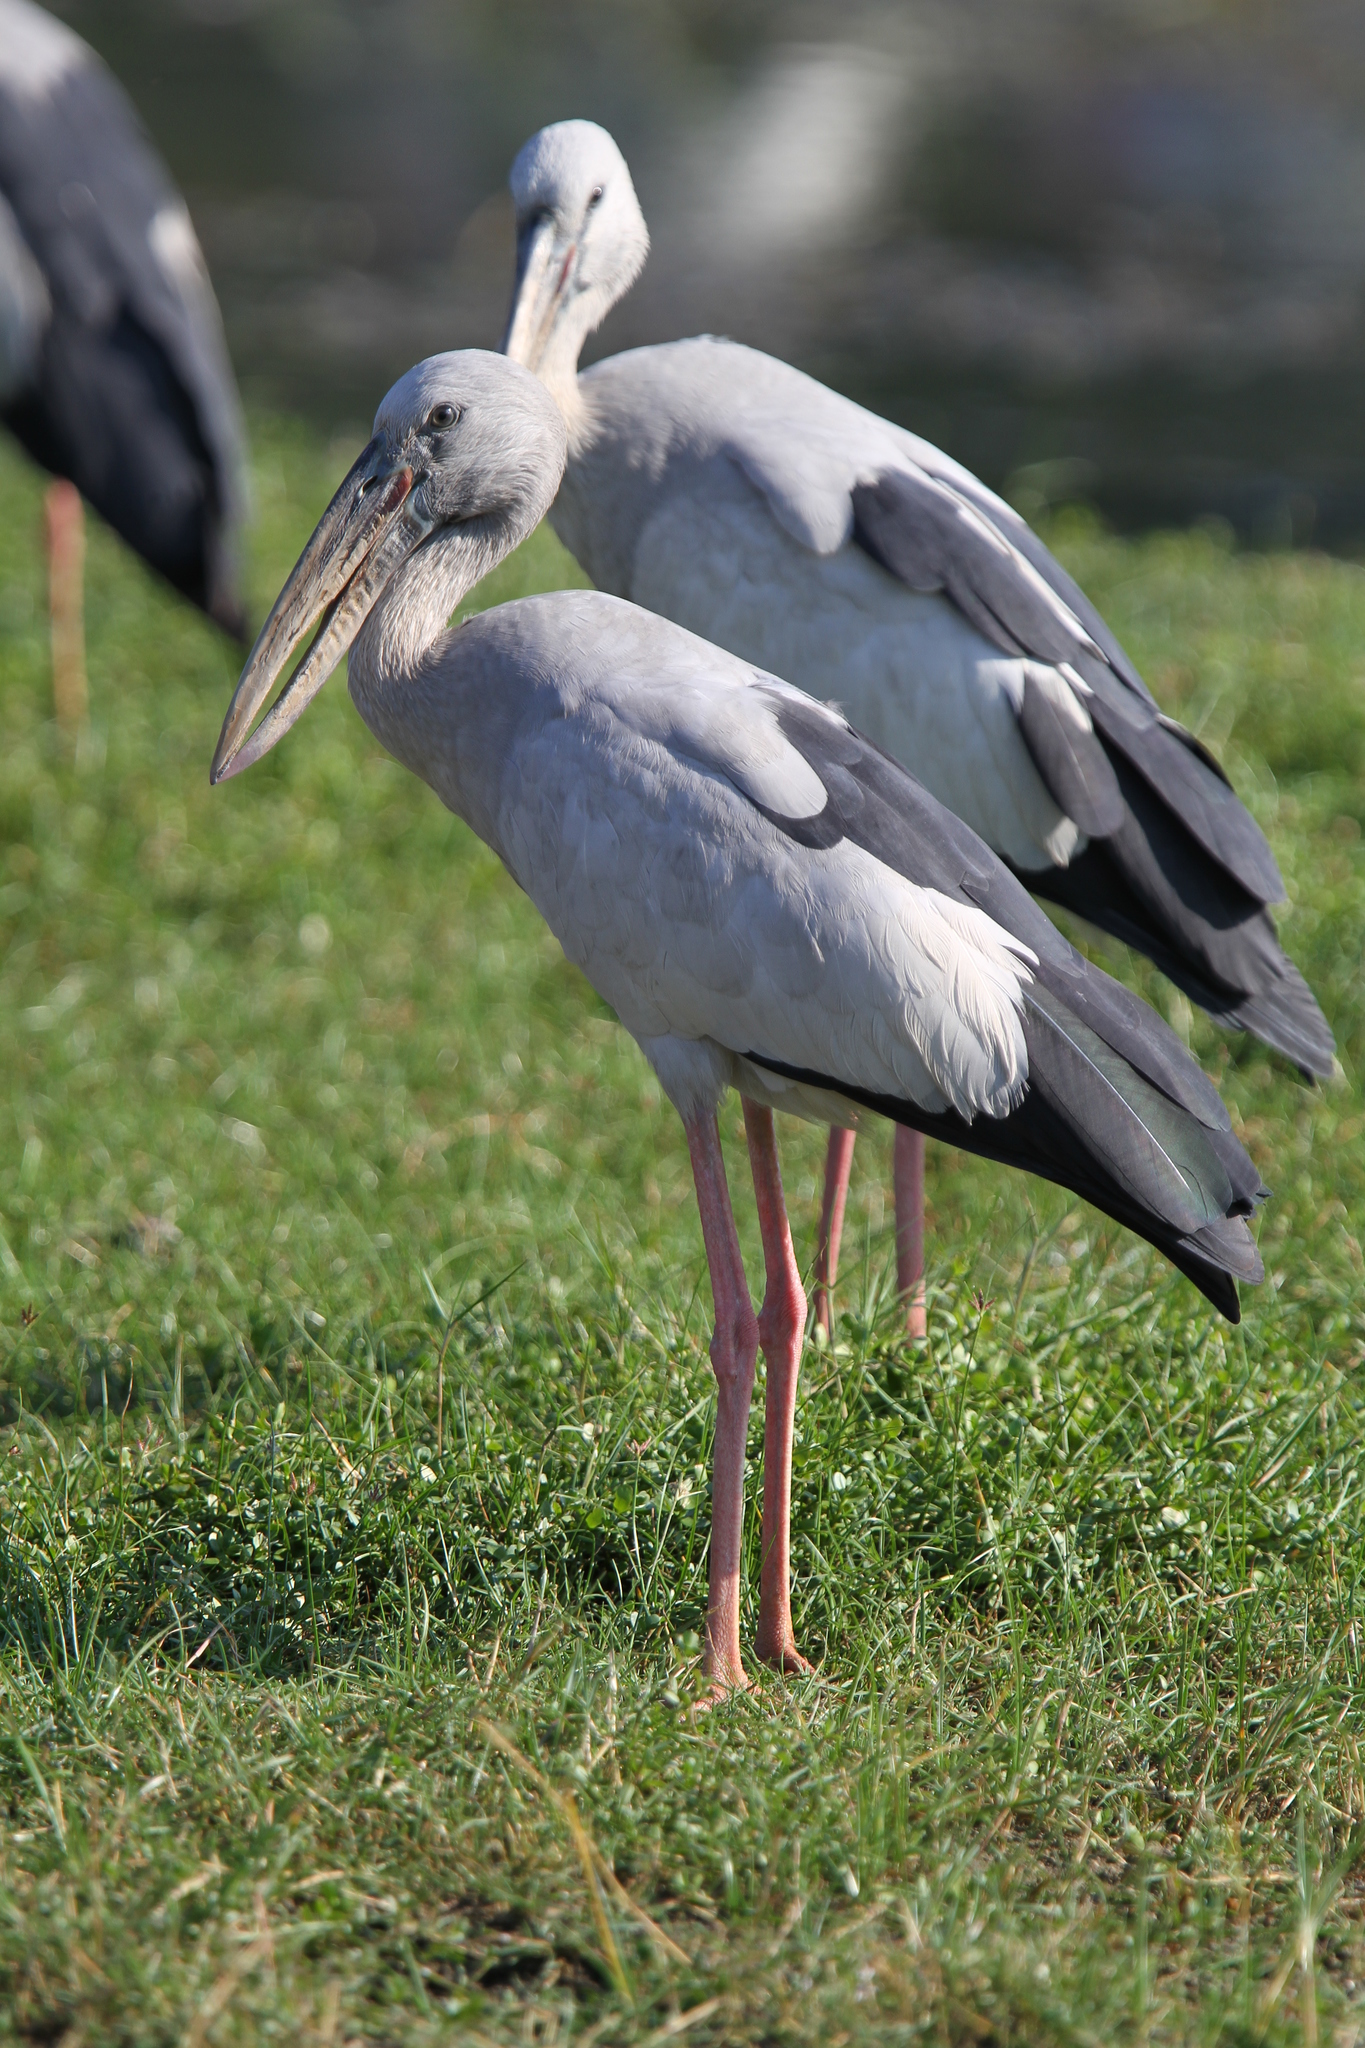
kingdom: Animalia
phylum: Chordata
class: Aves
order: Ciconiiformes
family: Ciconiidae
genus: Anastomus
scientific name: Anastomus oscitans
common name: Asian openbill
